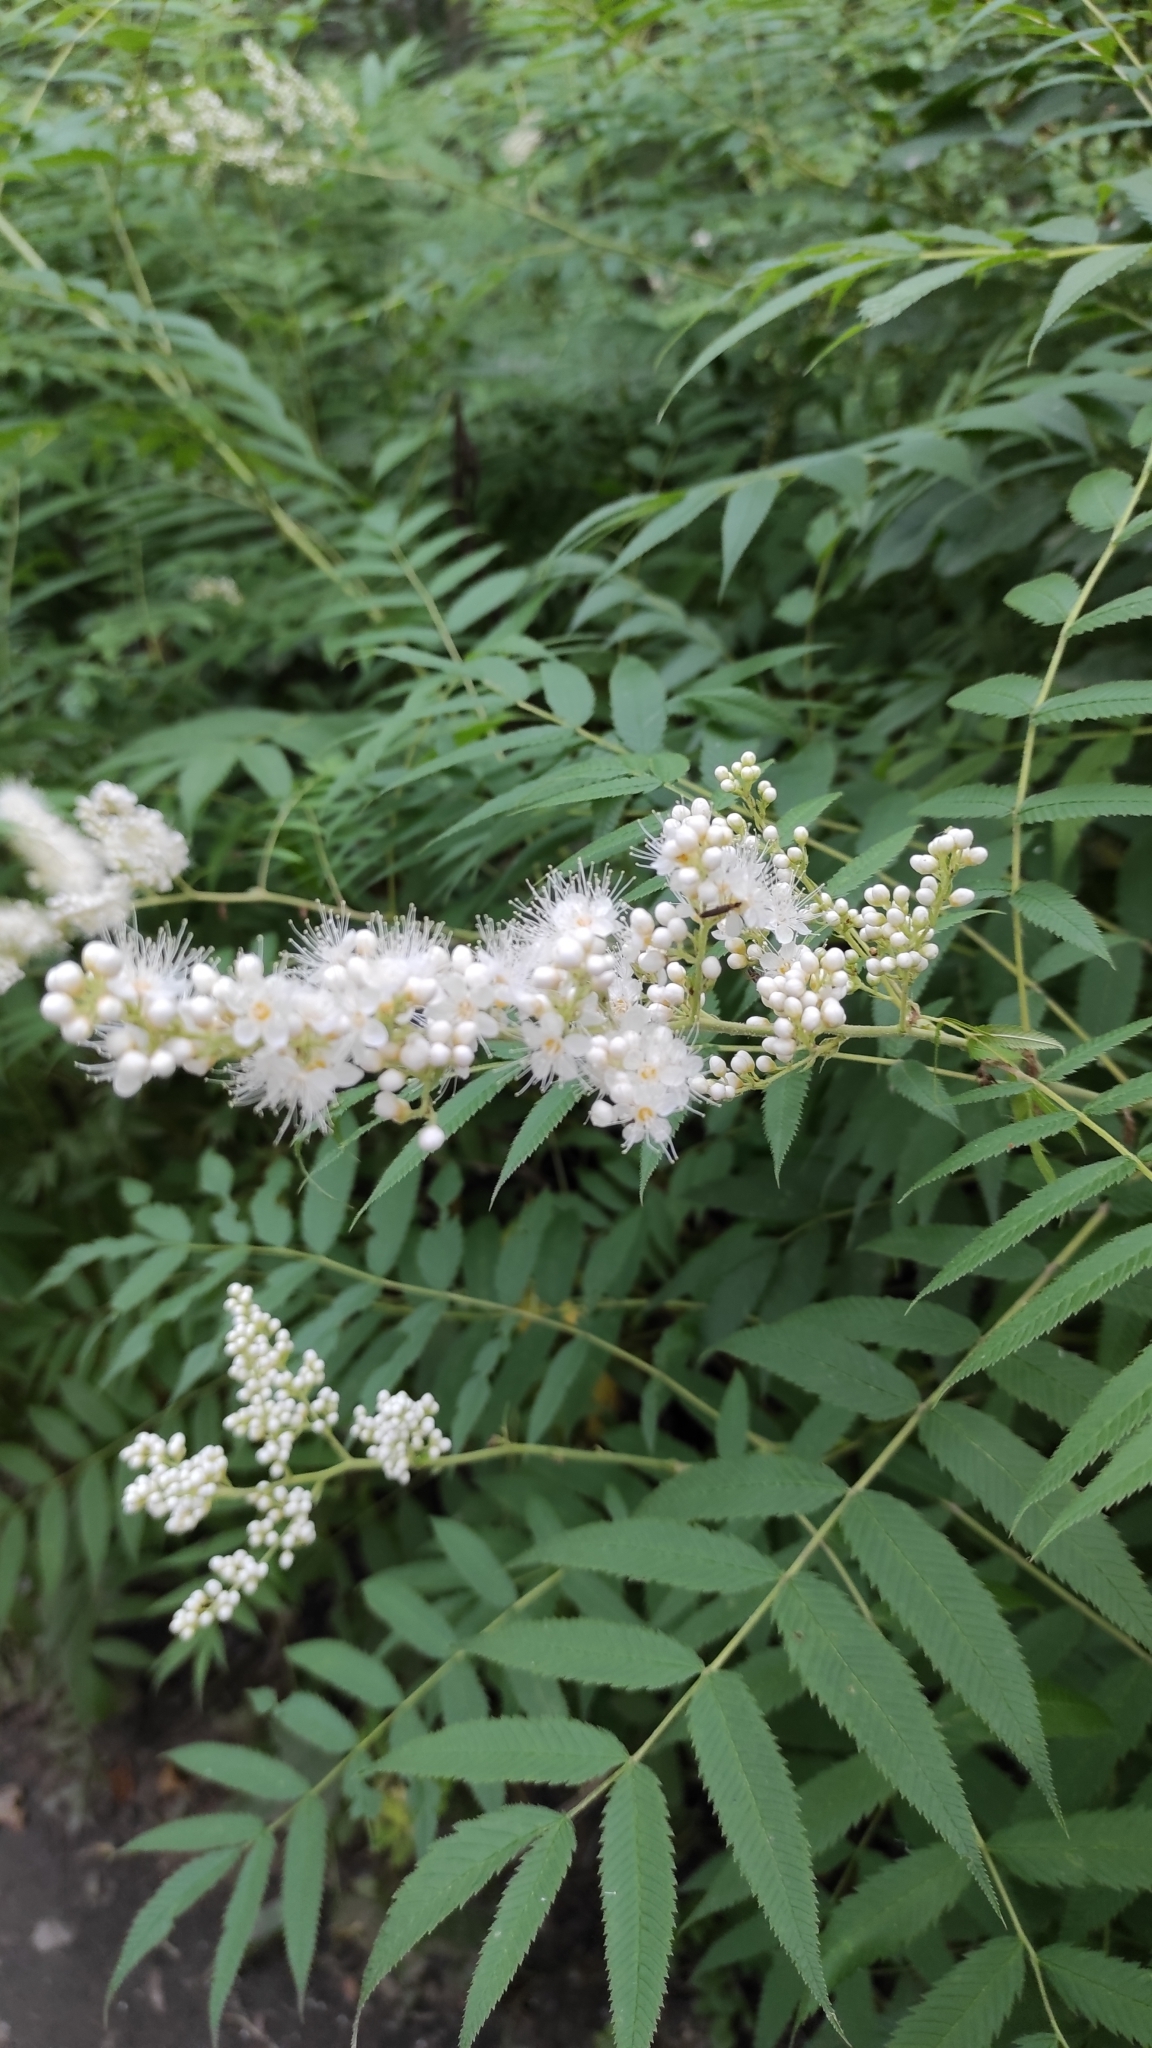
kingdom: Plantae
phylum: Tracheophyta
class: Magnoliopsida
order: Rosales
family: Rosaceae
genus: Sorbaria
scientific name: Sorbaria sorbifolia
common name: False spiraea
